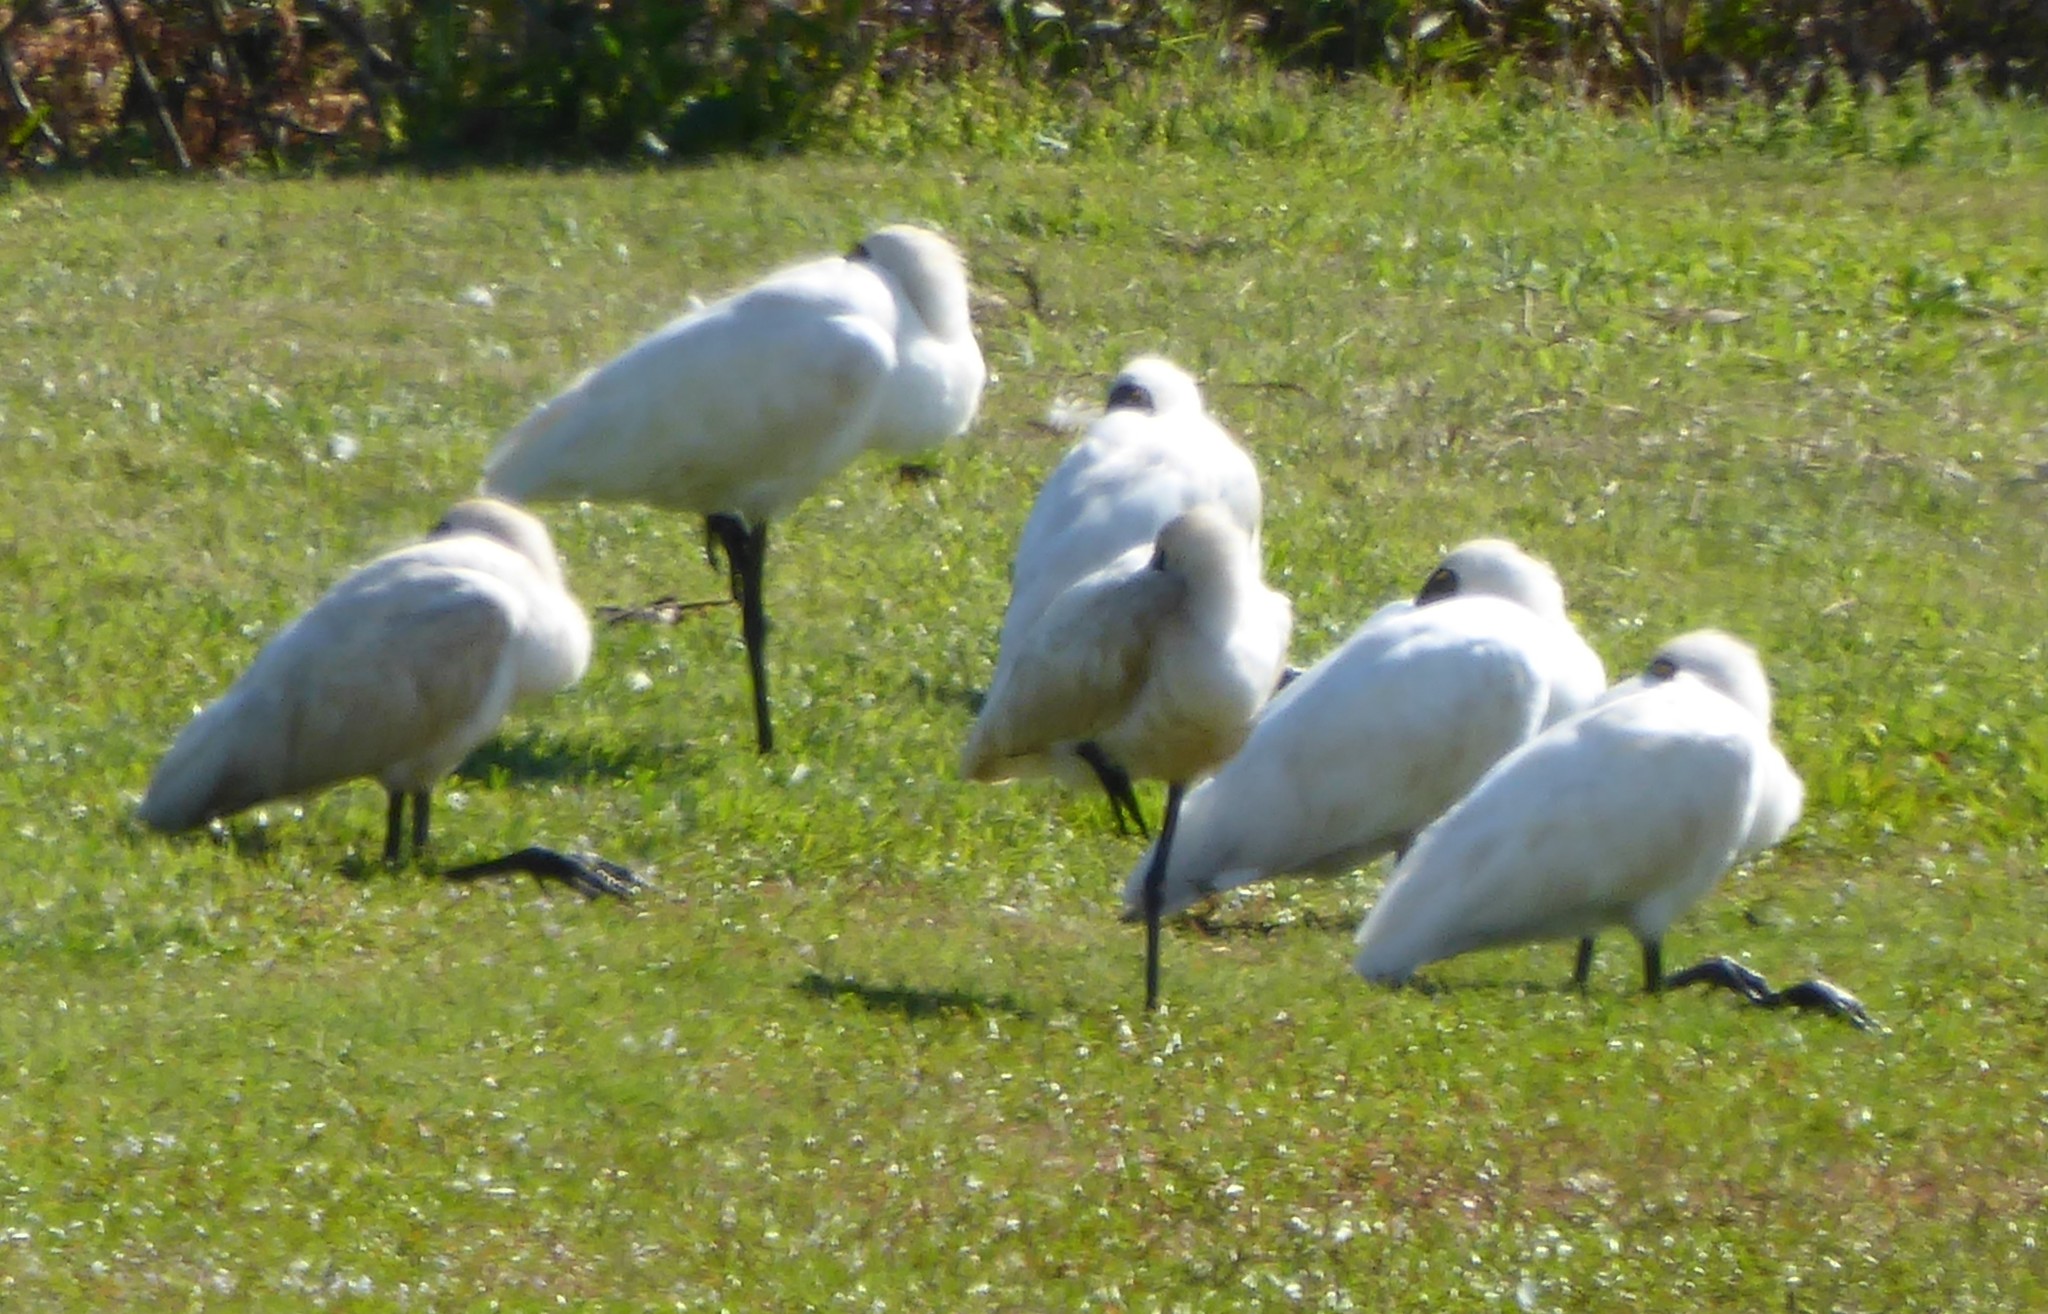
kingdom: Animalia
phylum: Chordata
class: Aves
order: Pelecaniformes
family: Threskiornithidae
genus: Platalea
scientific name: Platalea regia
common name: Royal spoonbill
